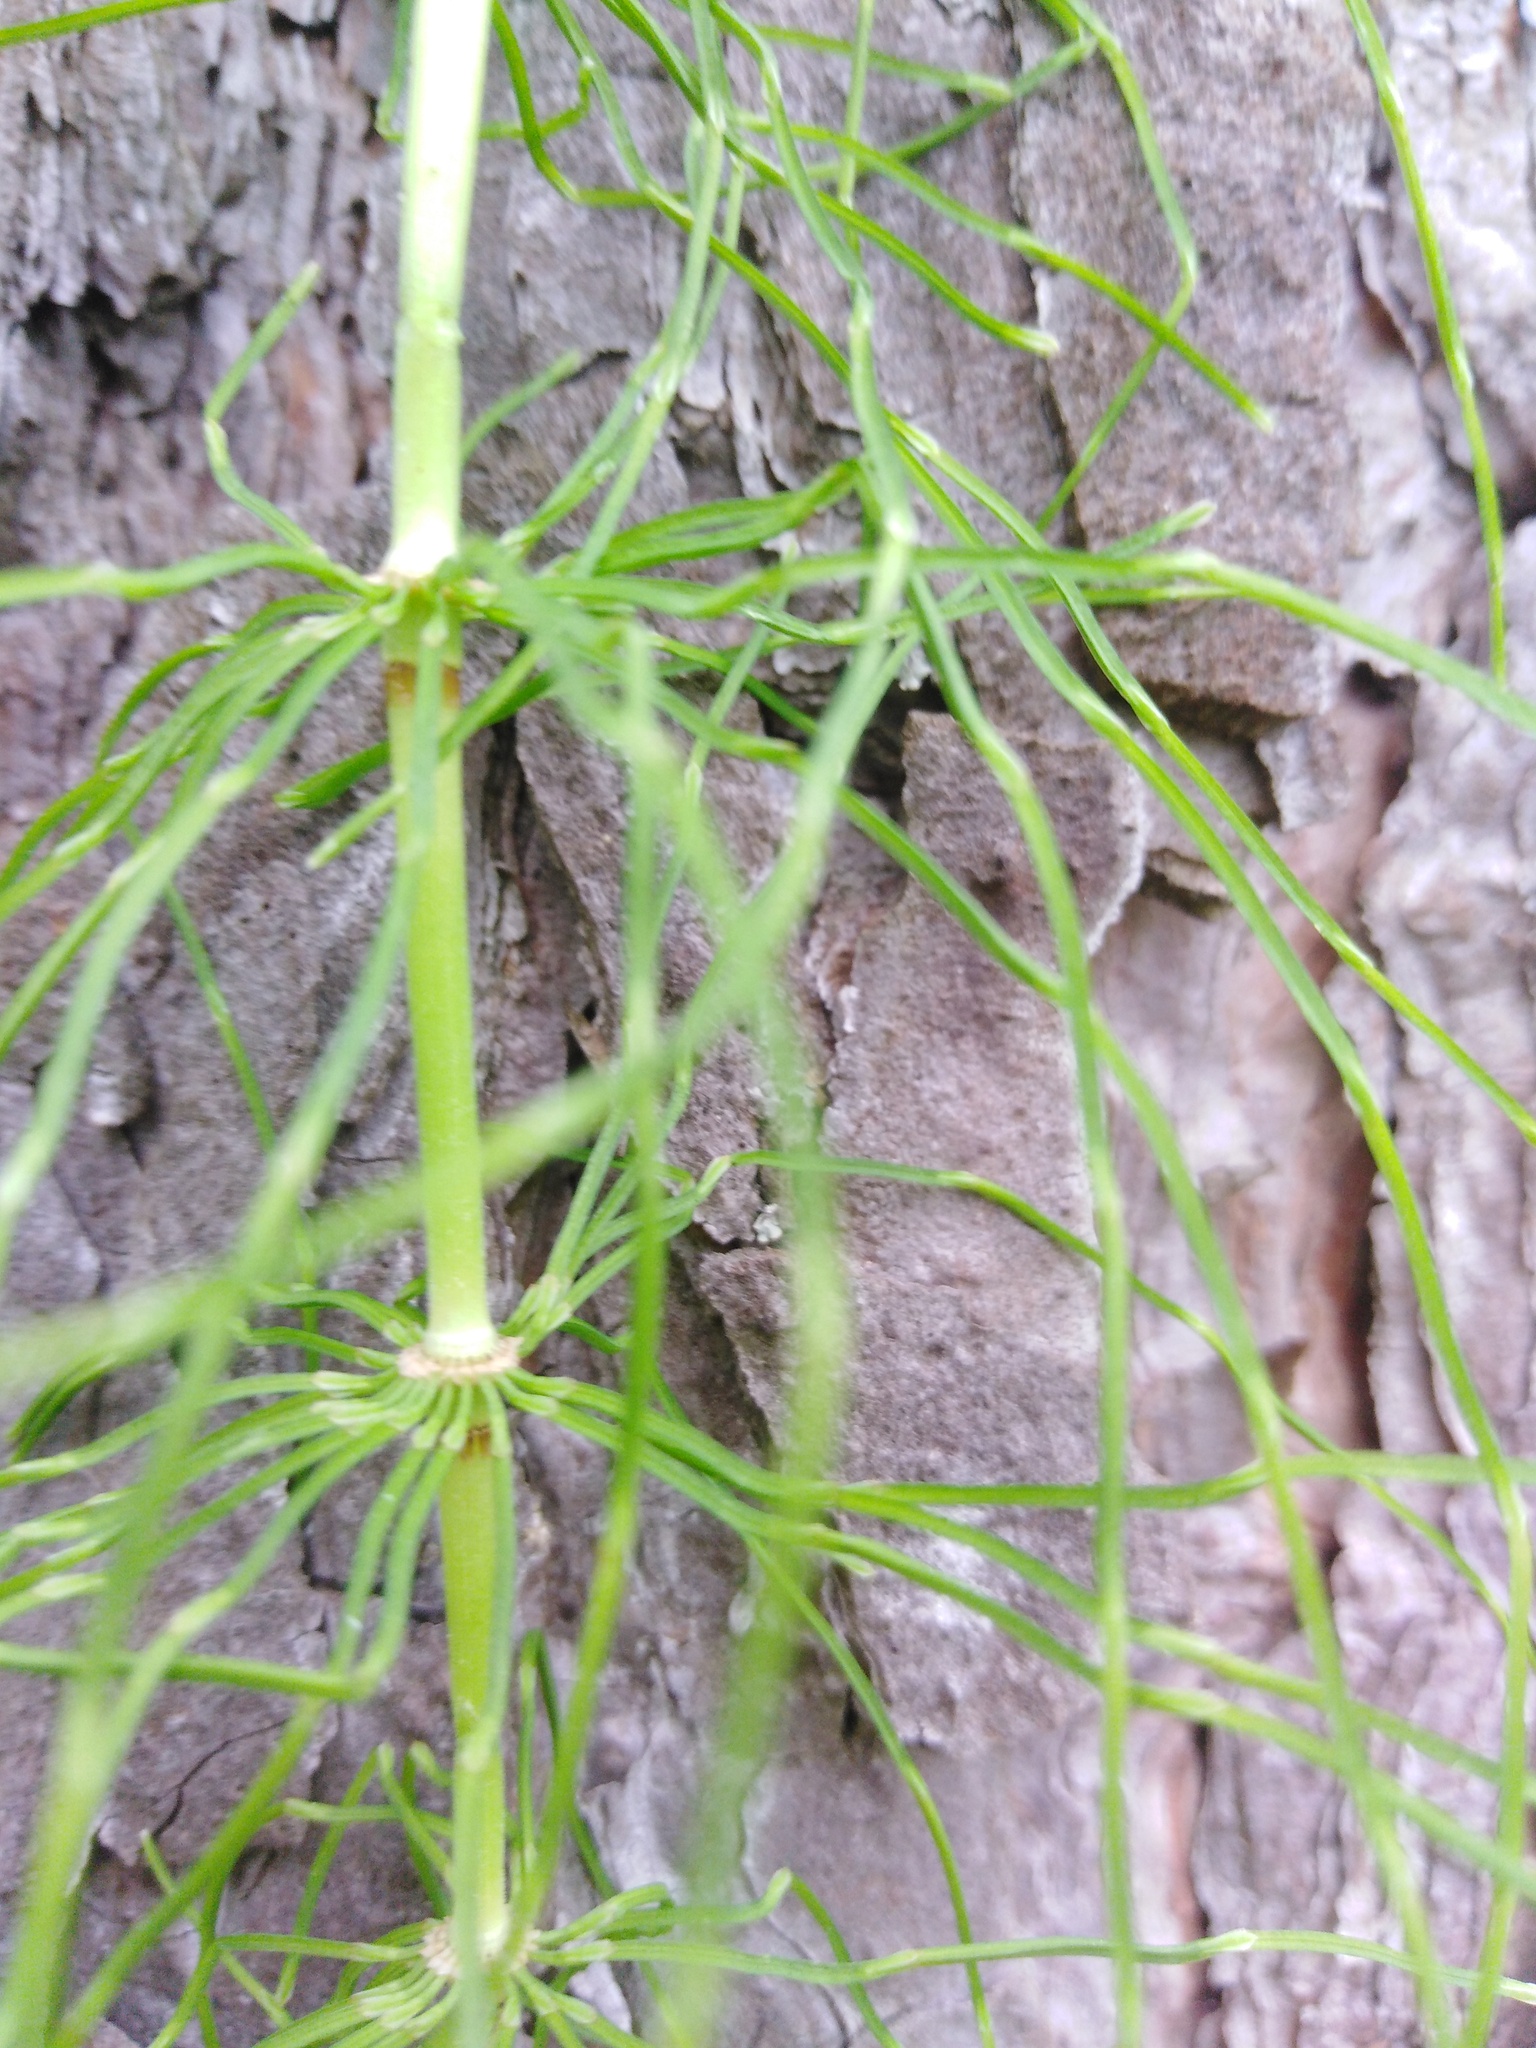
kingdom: Plantae
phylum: Tracheophyta
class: Polypodiopsida
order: Equisetales
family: Equisetaceae
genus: Equisetum
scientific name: Equisetum pratense
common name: Meadow horsetail
